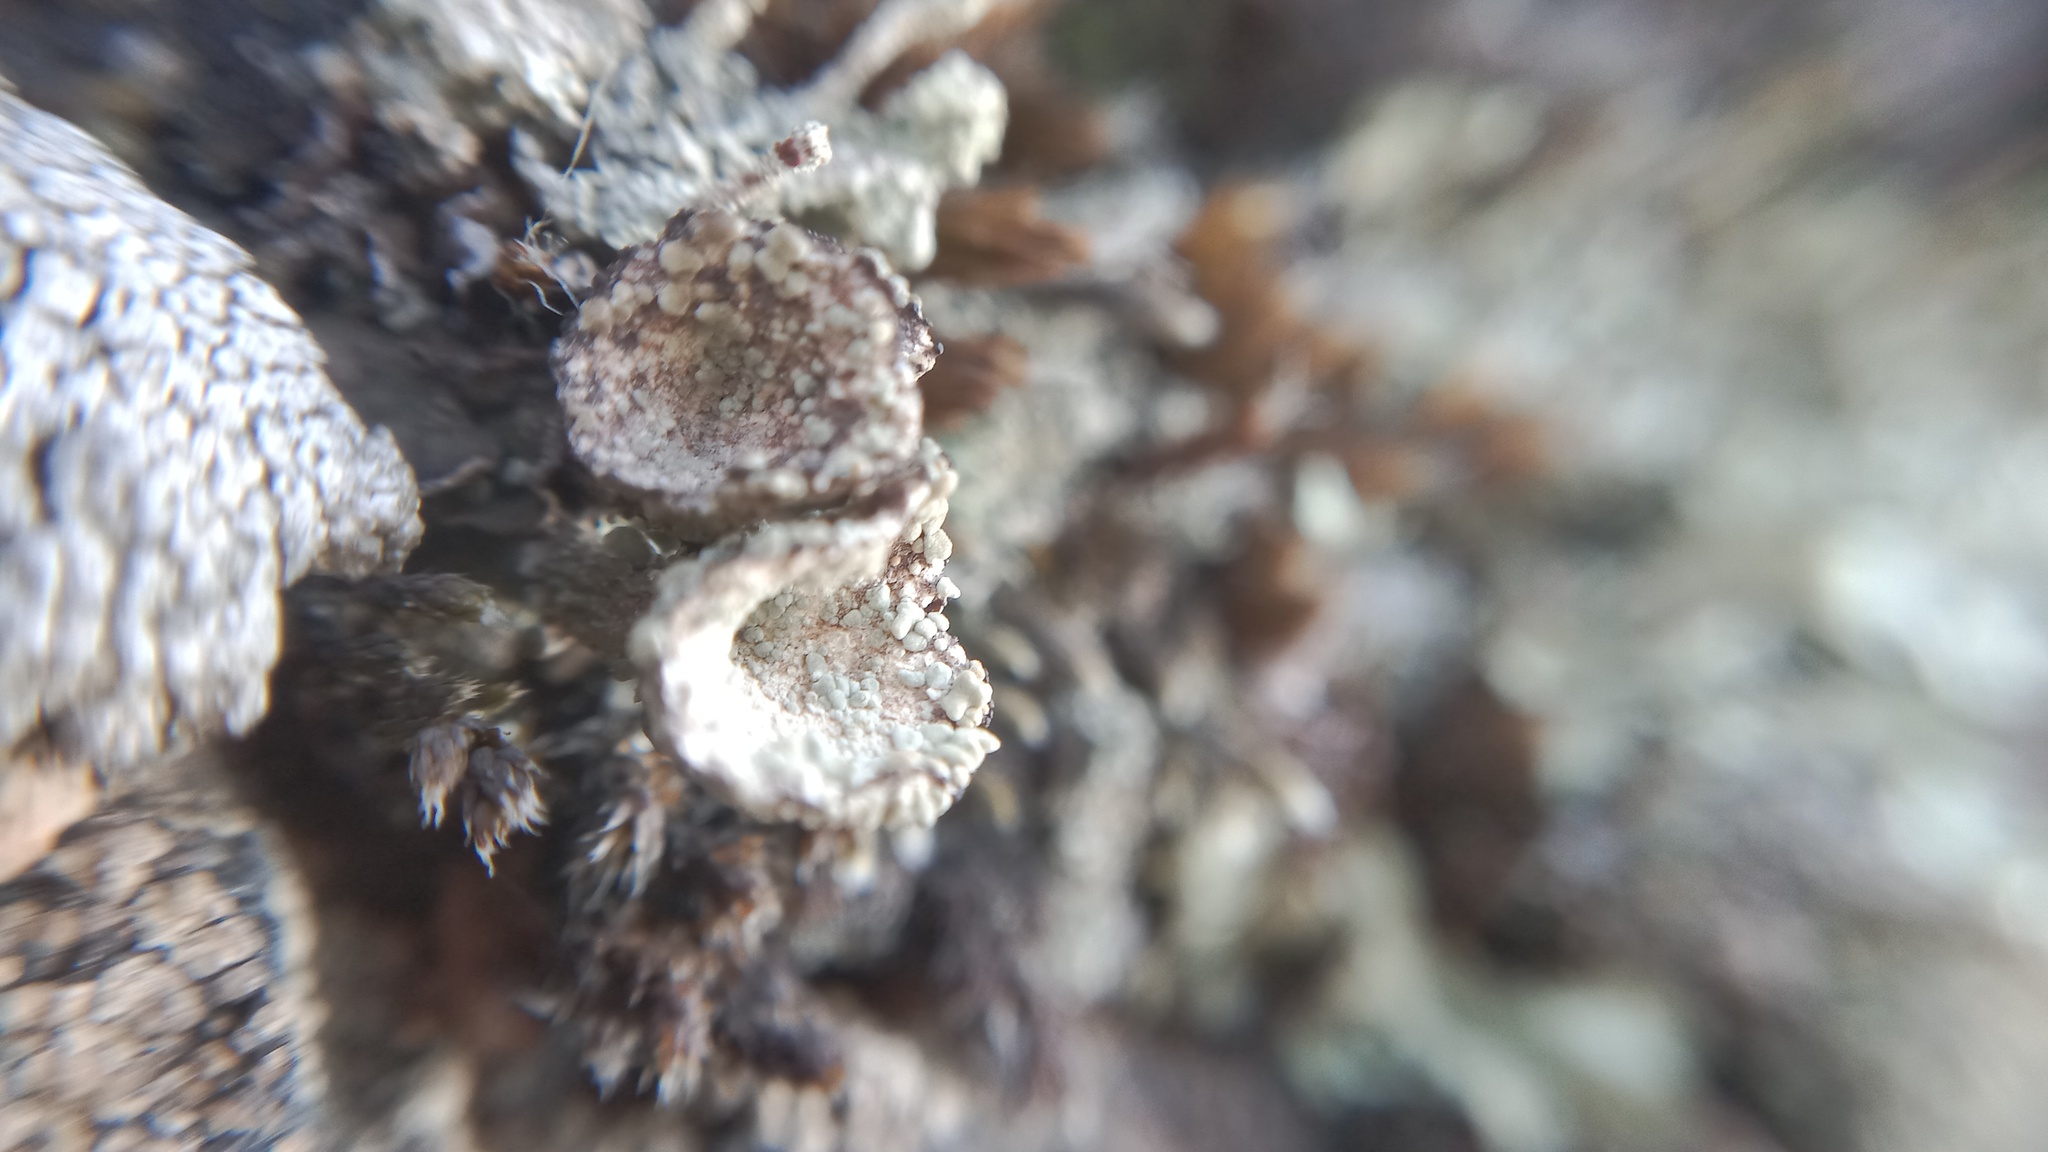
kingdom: Fungi
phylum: Ascomycota
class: Lecanoromycetes
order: Lecanorales
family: Cladoniaceae
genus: Cladonia
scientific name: Cladonia pyxidata
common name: Pebbled pixie cup
